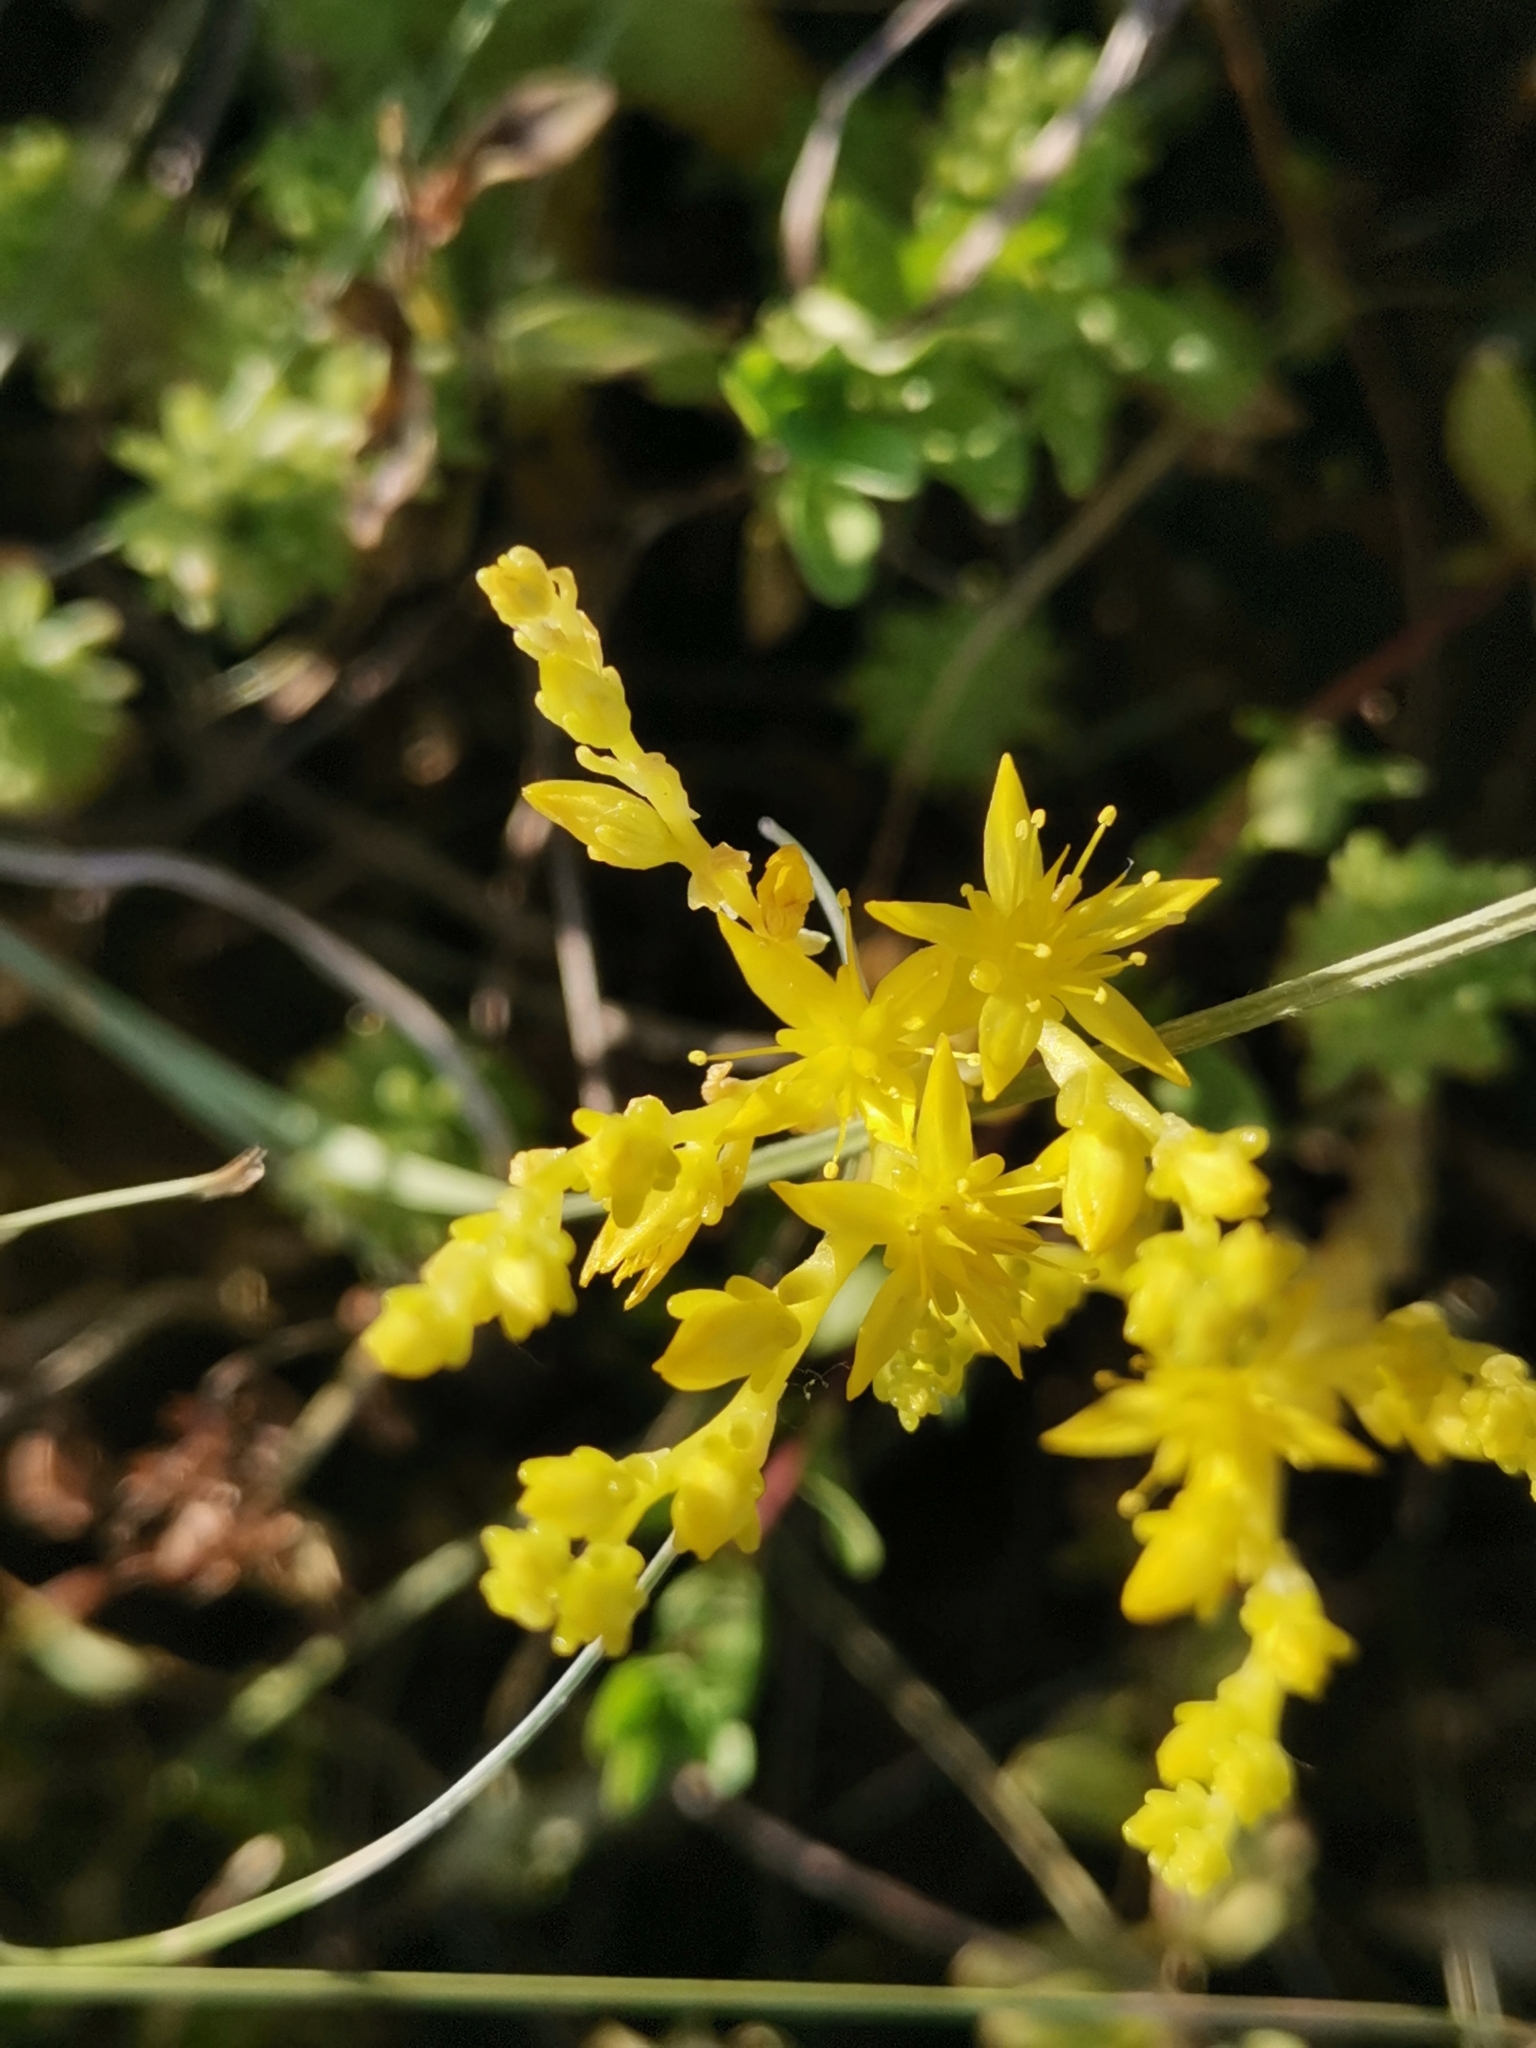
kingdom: Plantae
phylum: Tracheophyta
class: Magnoliopsida
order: Saxifragales
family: Crassulaceae
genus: Sedum
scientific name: Sedum sexangulare
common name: Tasteless stonecrop
